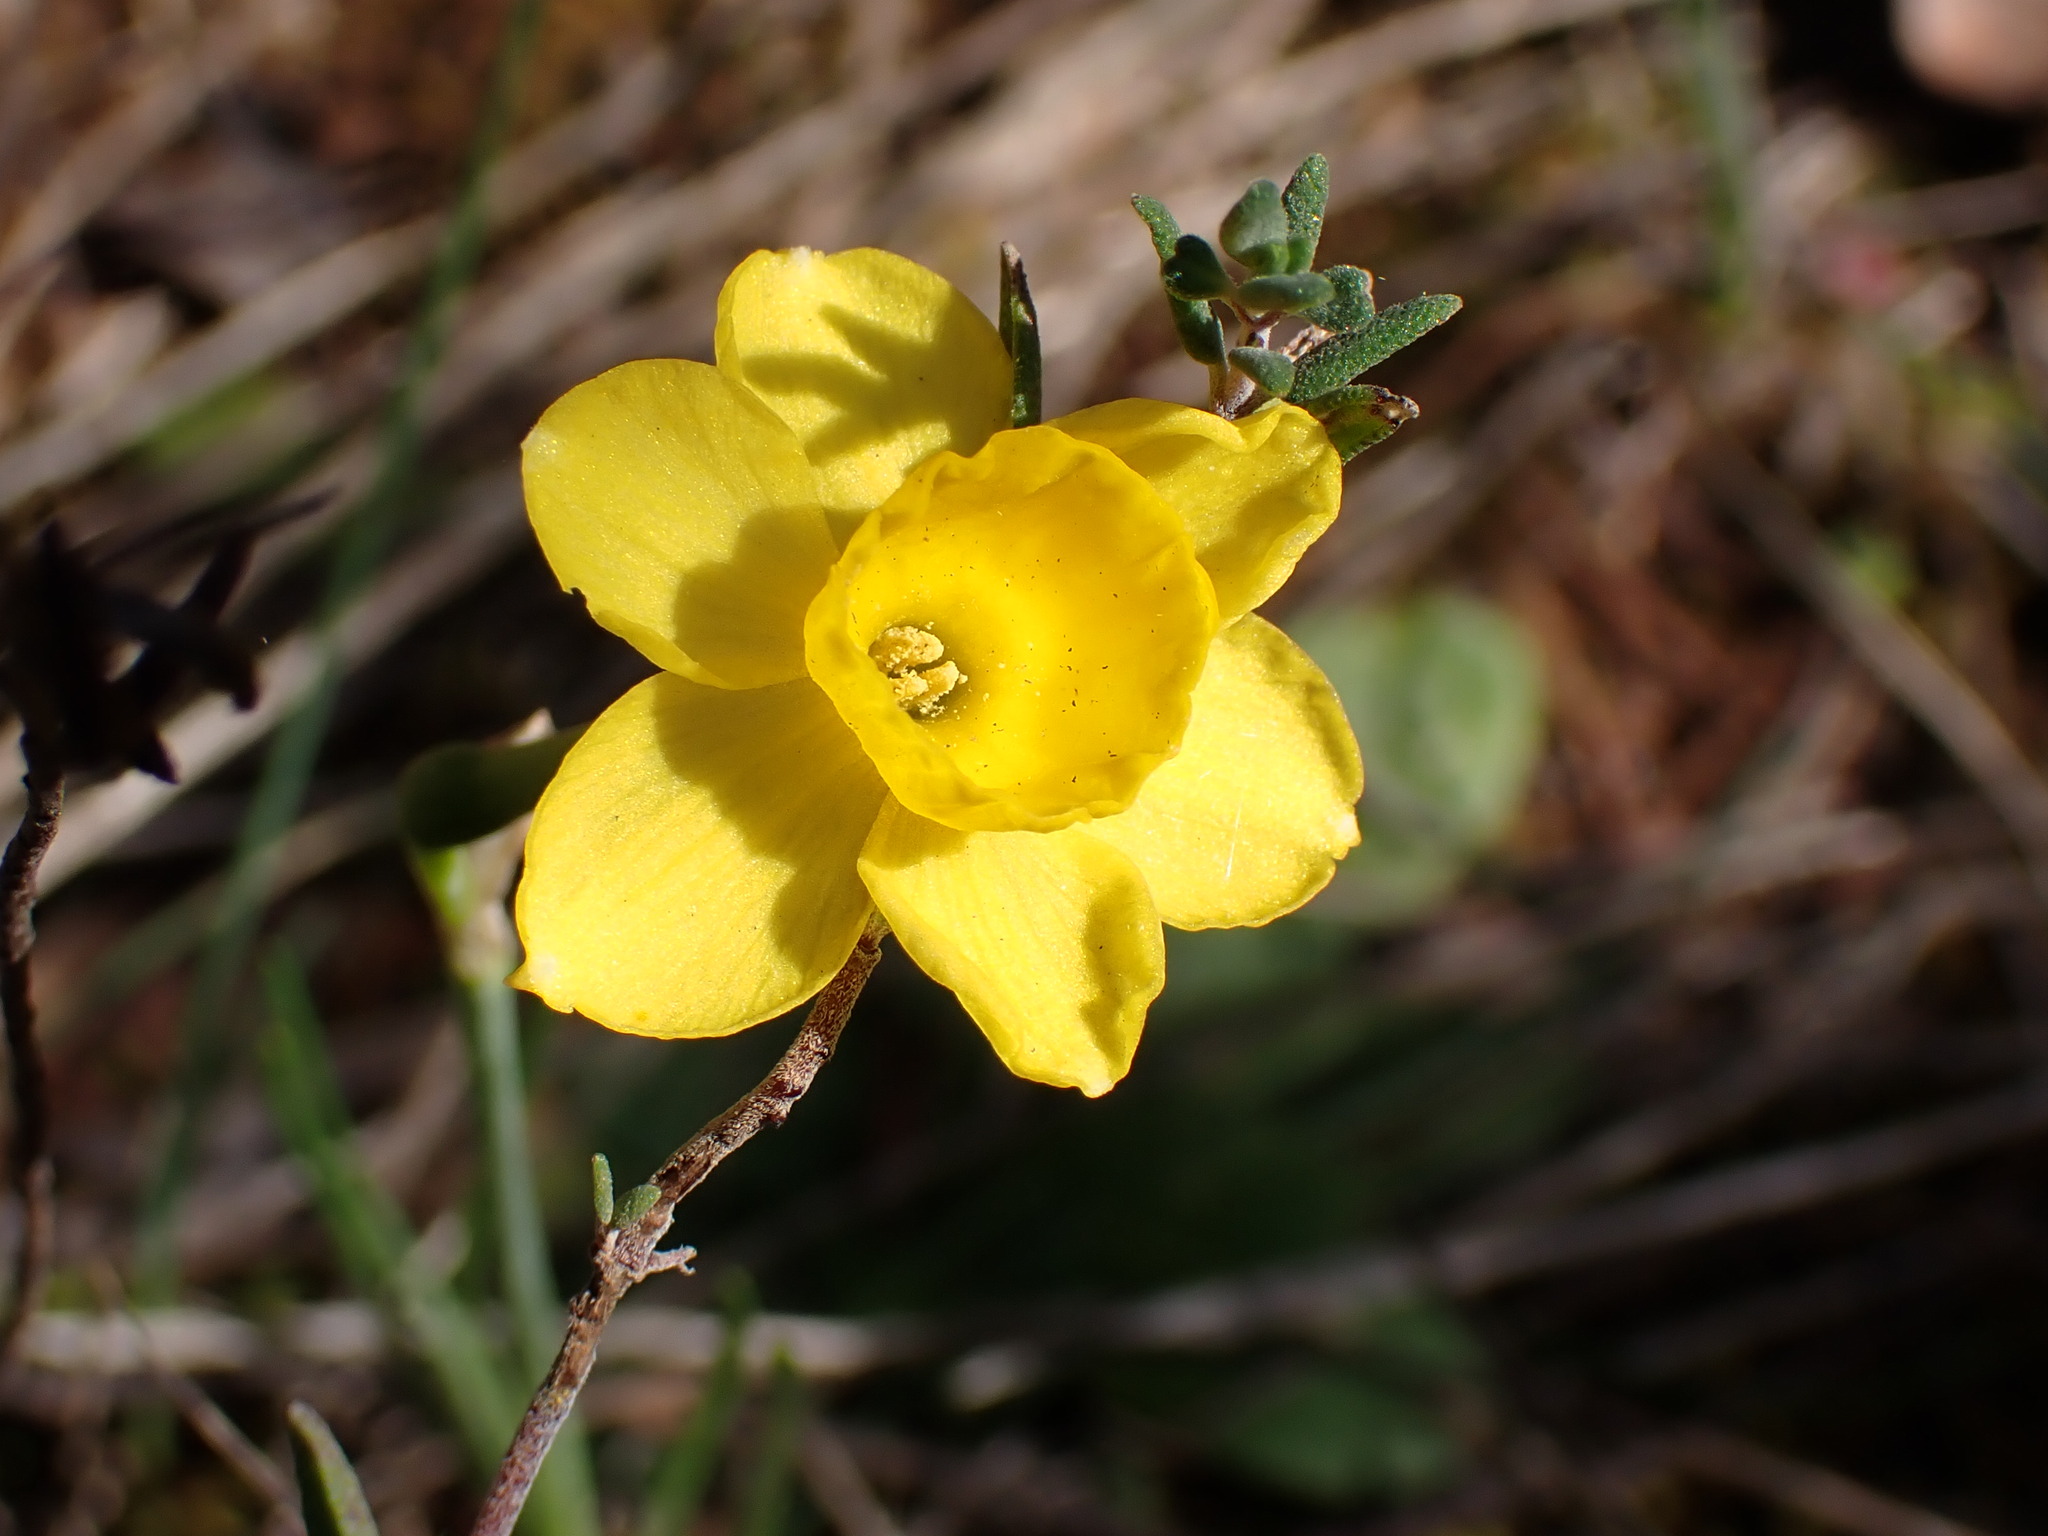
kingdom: Plantae
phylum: Tracheophyta
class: Liliopsida
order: Asparagales
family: Amaryllidaceae
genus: Narcissus
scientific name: Narcissus assoanus
